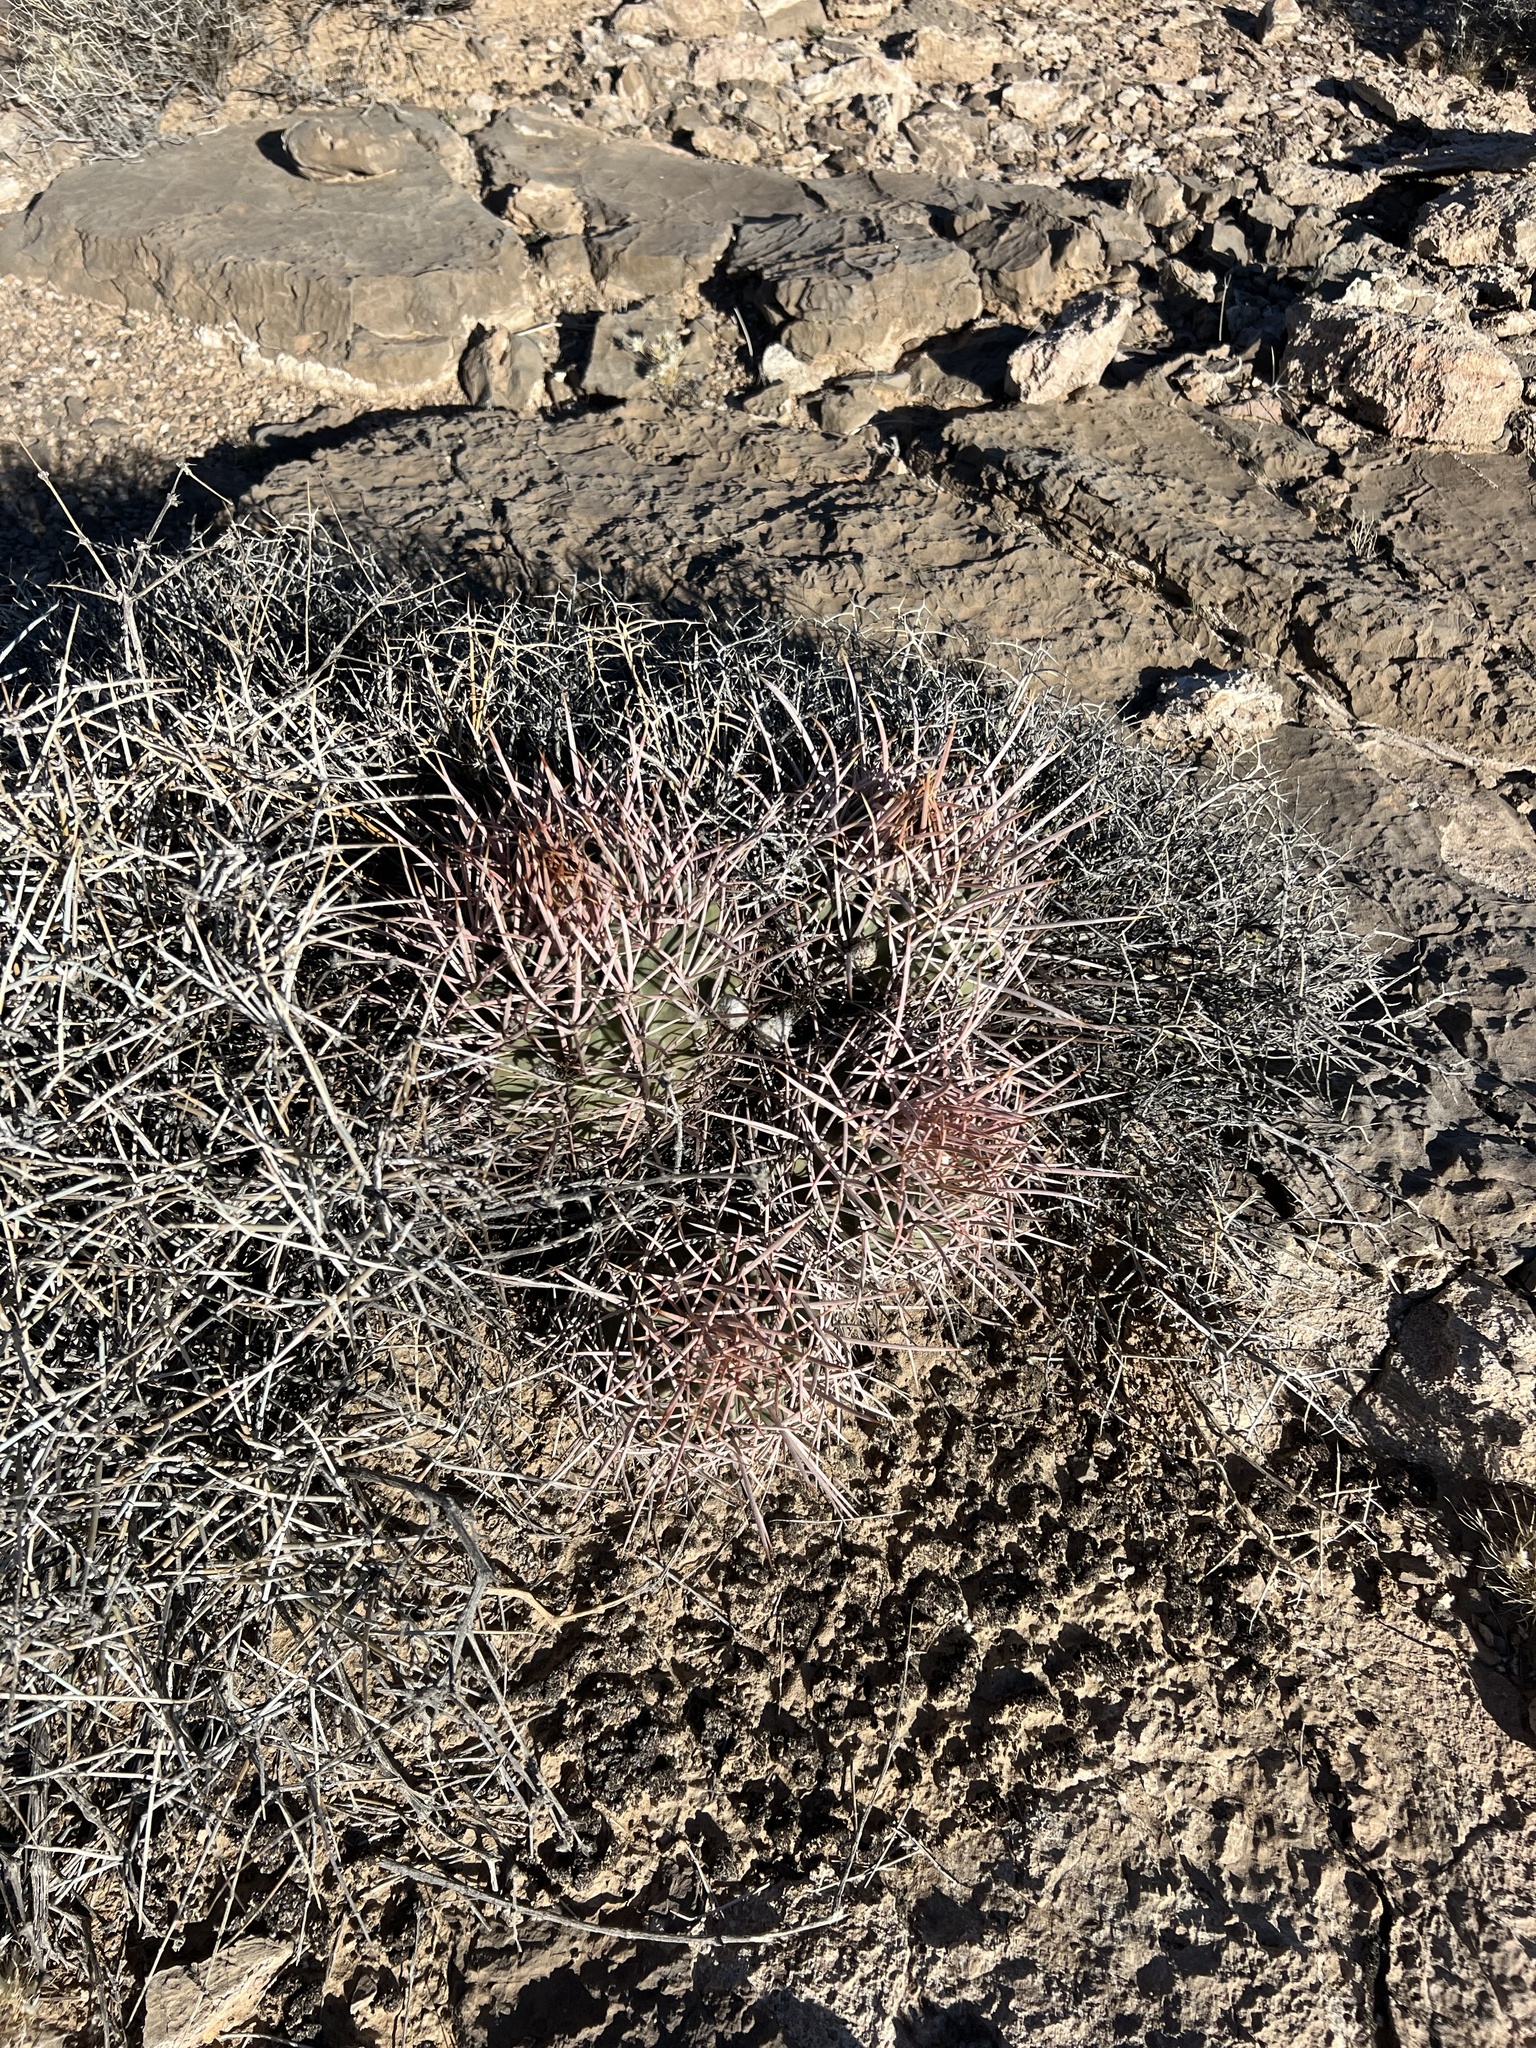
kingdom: Plantae
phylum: Tracheophyta
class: Magnoliopsida
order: Caryophyllales
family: Cactaceae
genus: Echinocactus
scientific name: Echinocactus polycephalus
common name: Cottontop cactus
